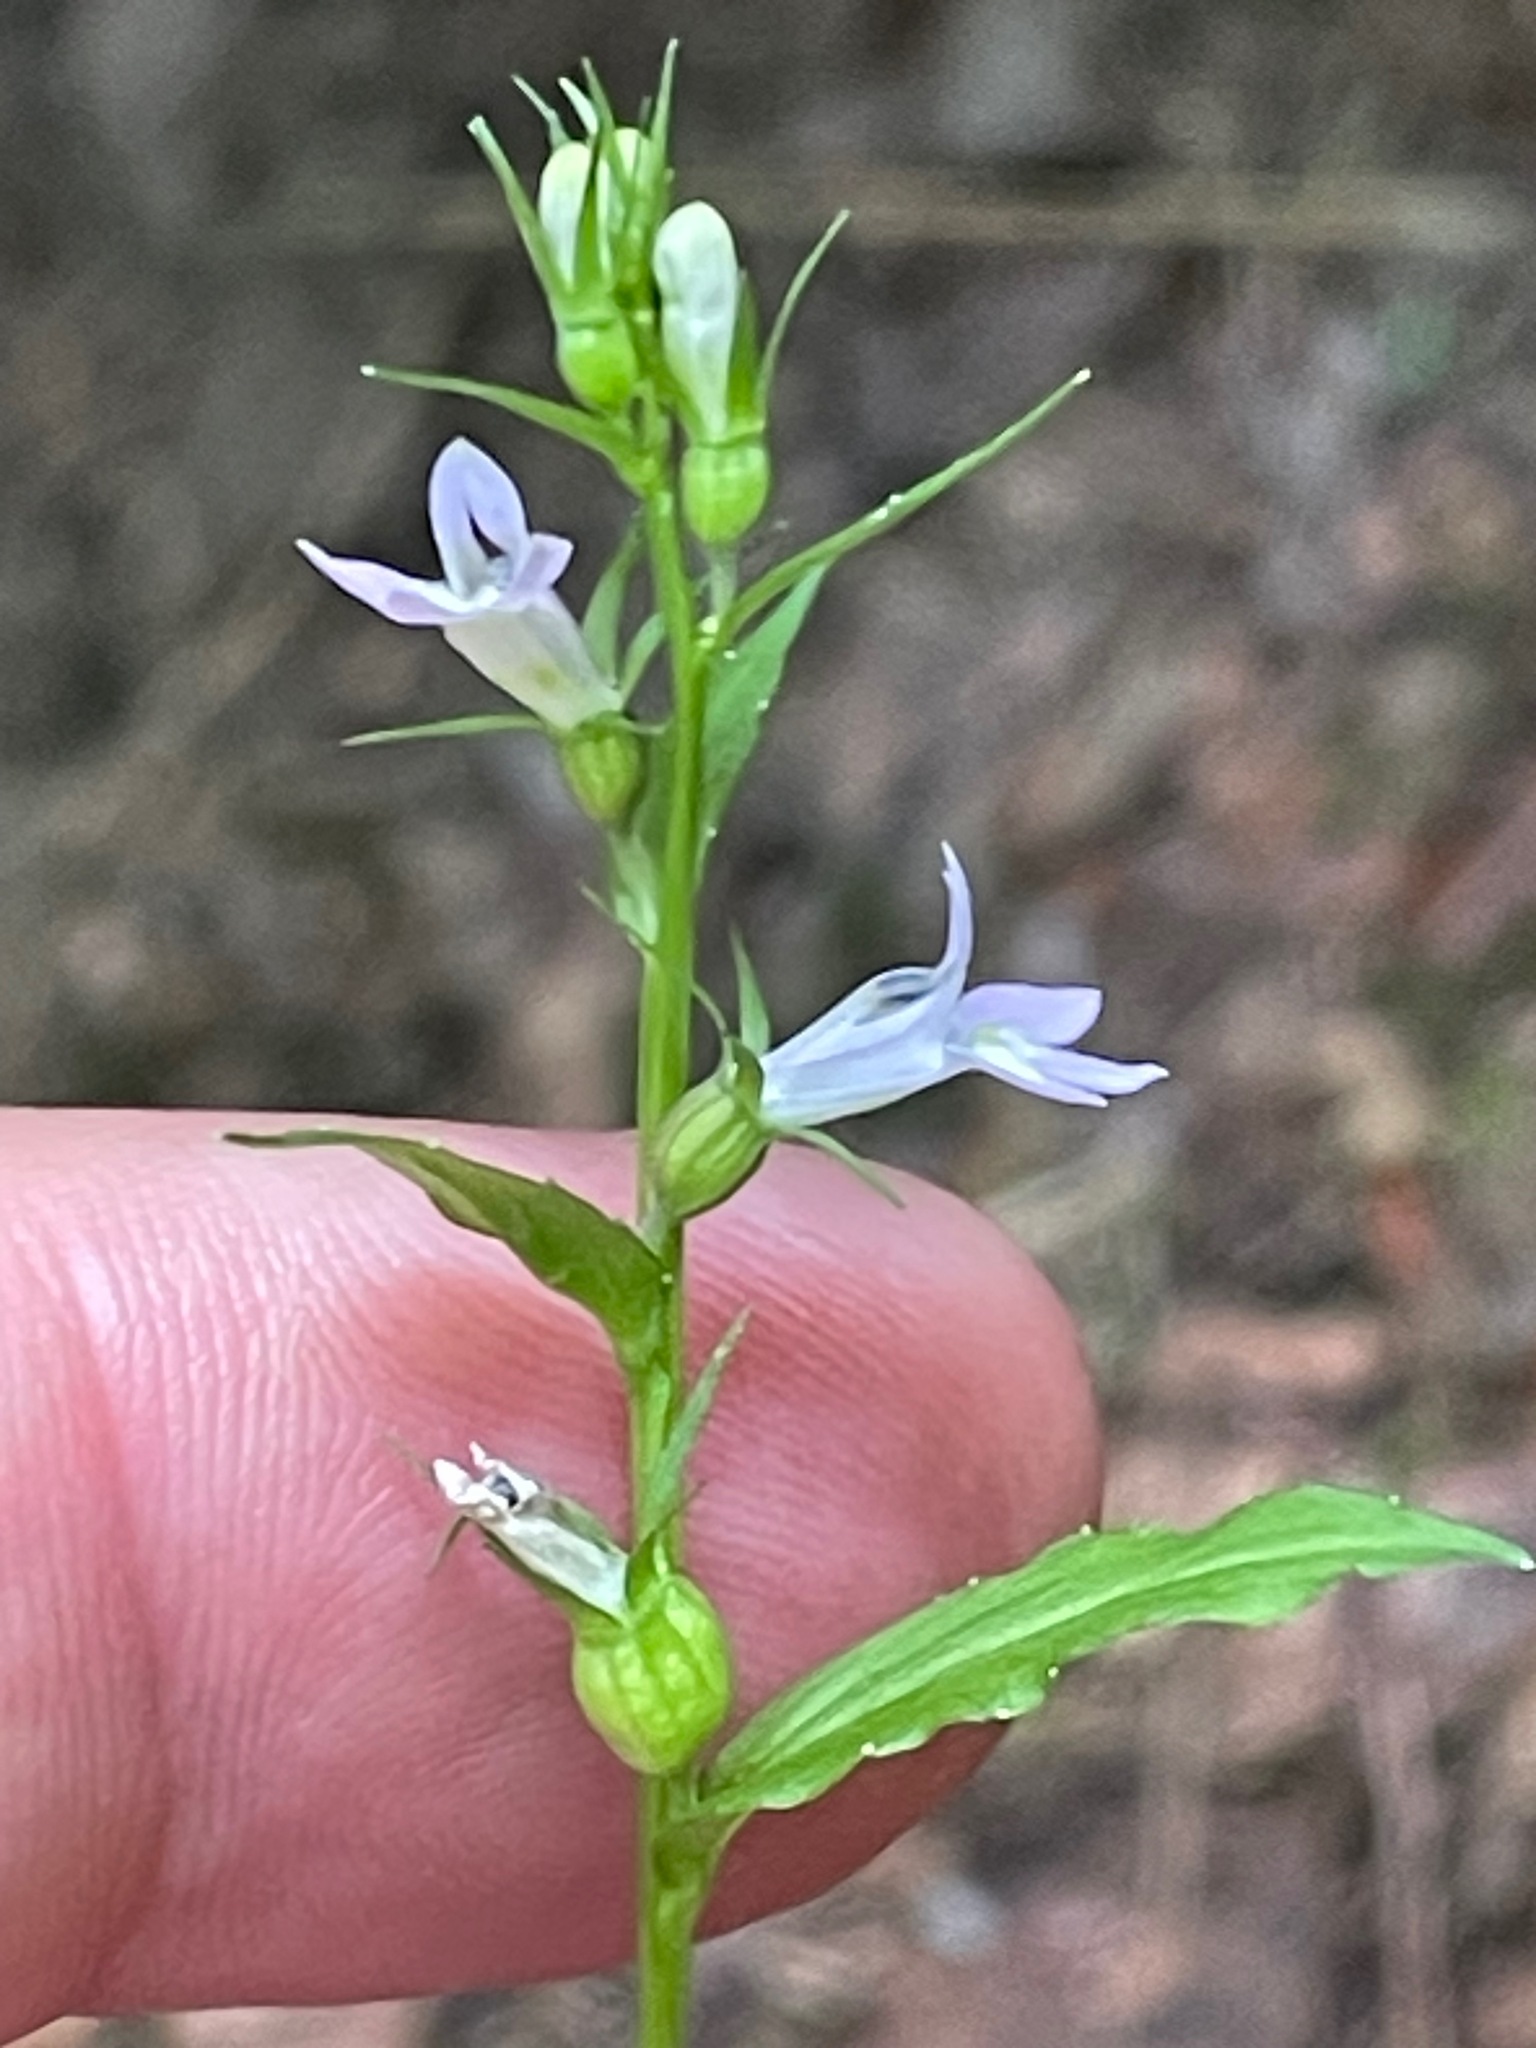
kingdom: Plantae
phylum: Tracheophyta
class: Magnoliopsida
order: Asterales
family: Campanulaceae
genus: Lobelia
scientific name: Lobelia inflata
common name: Indian tobacco
